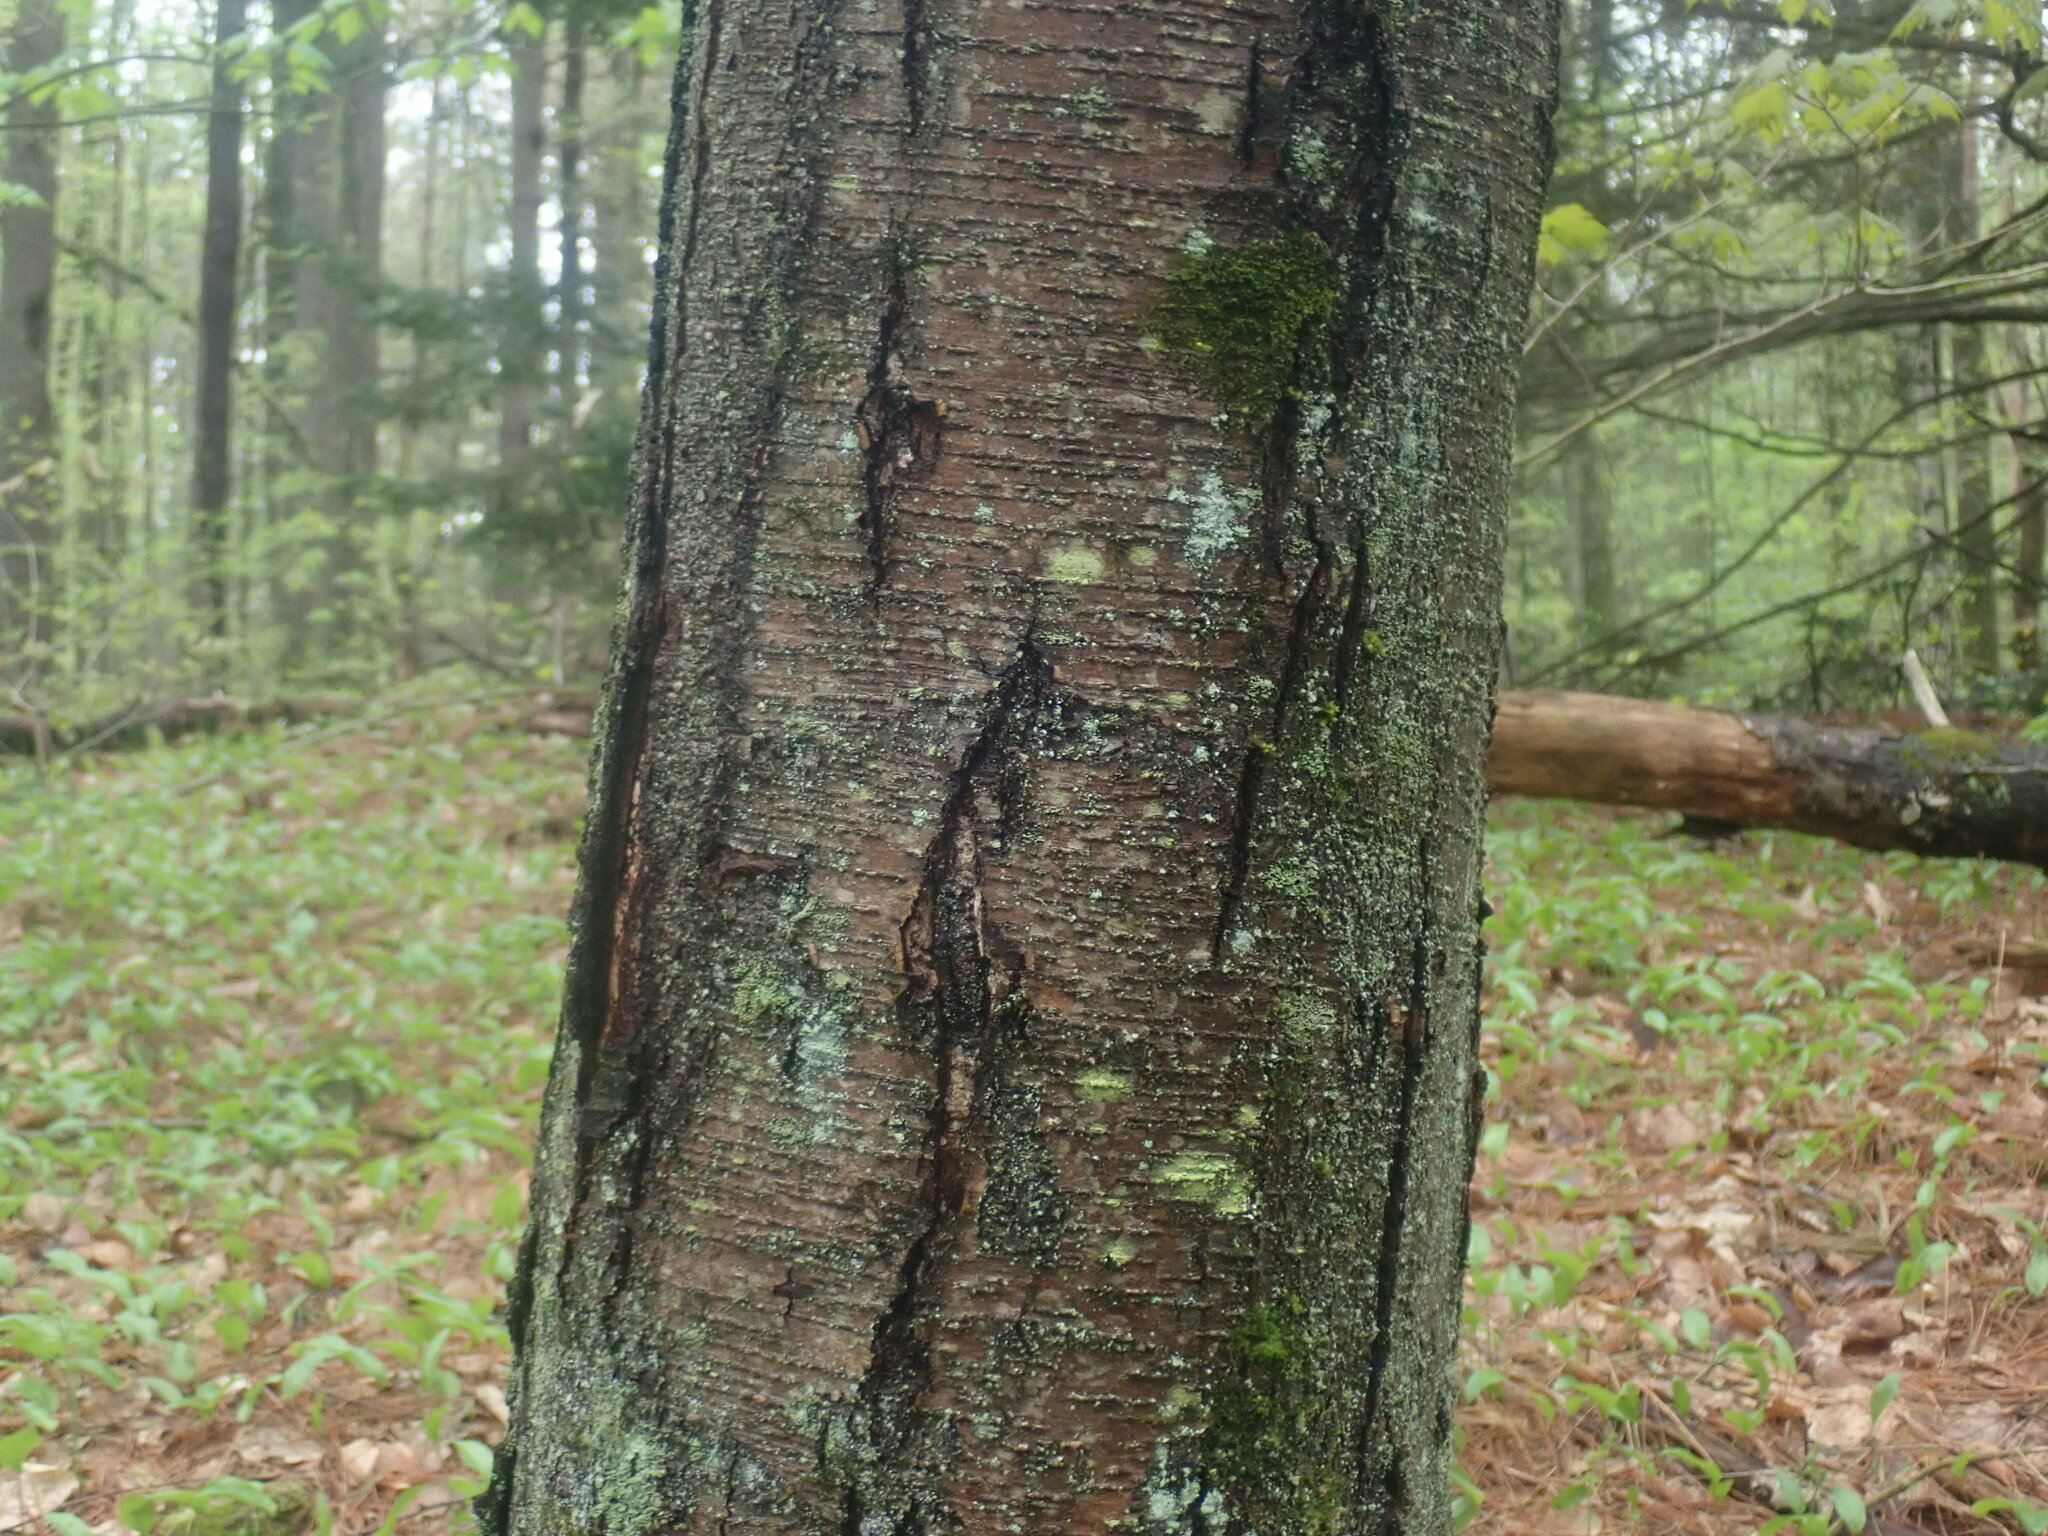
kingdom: Plantae
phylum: Tracheophyta
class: Magnoliopsida
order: Fagales
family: Betulaceae
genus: Betula
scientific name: Betula lenta
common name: Black birch
